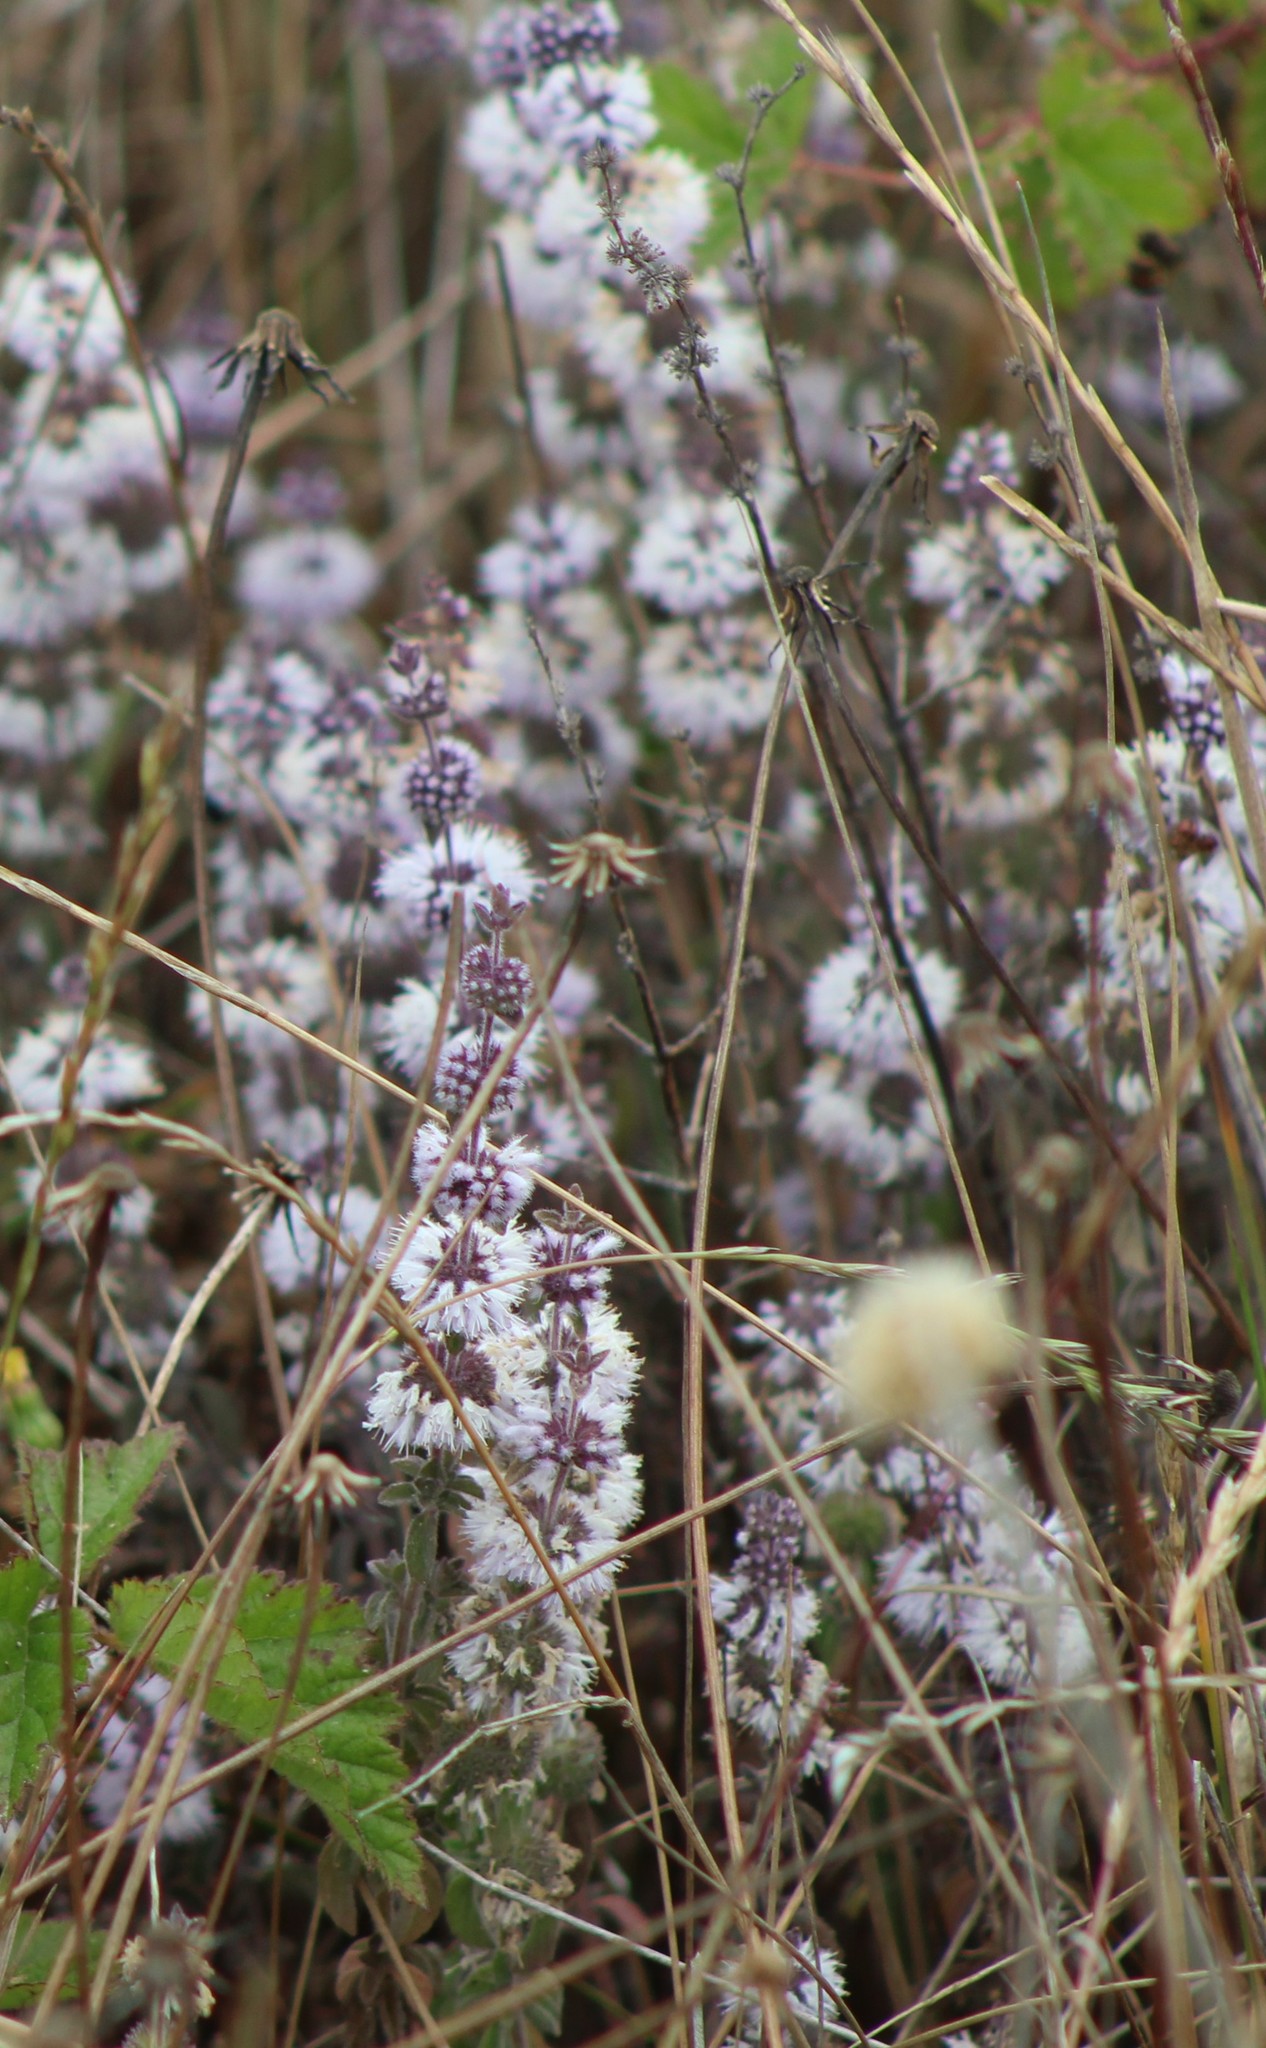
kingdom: Plantae
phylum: Tracheophyta
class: Magnoliopsida
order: Lamiales
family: Lamiaceae
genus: Mentha
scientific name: Mentha pulegium
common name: Pennyroyal
